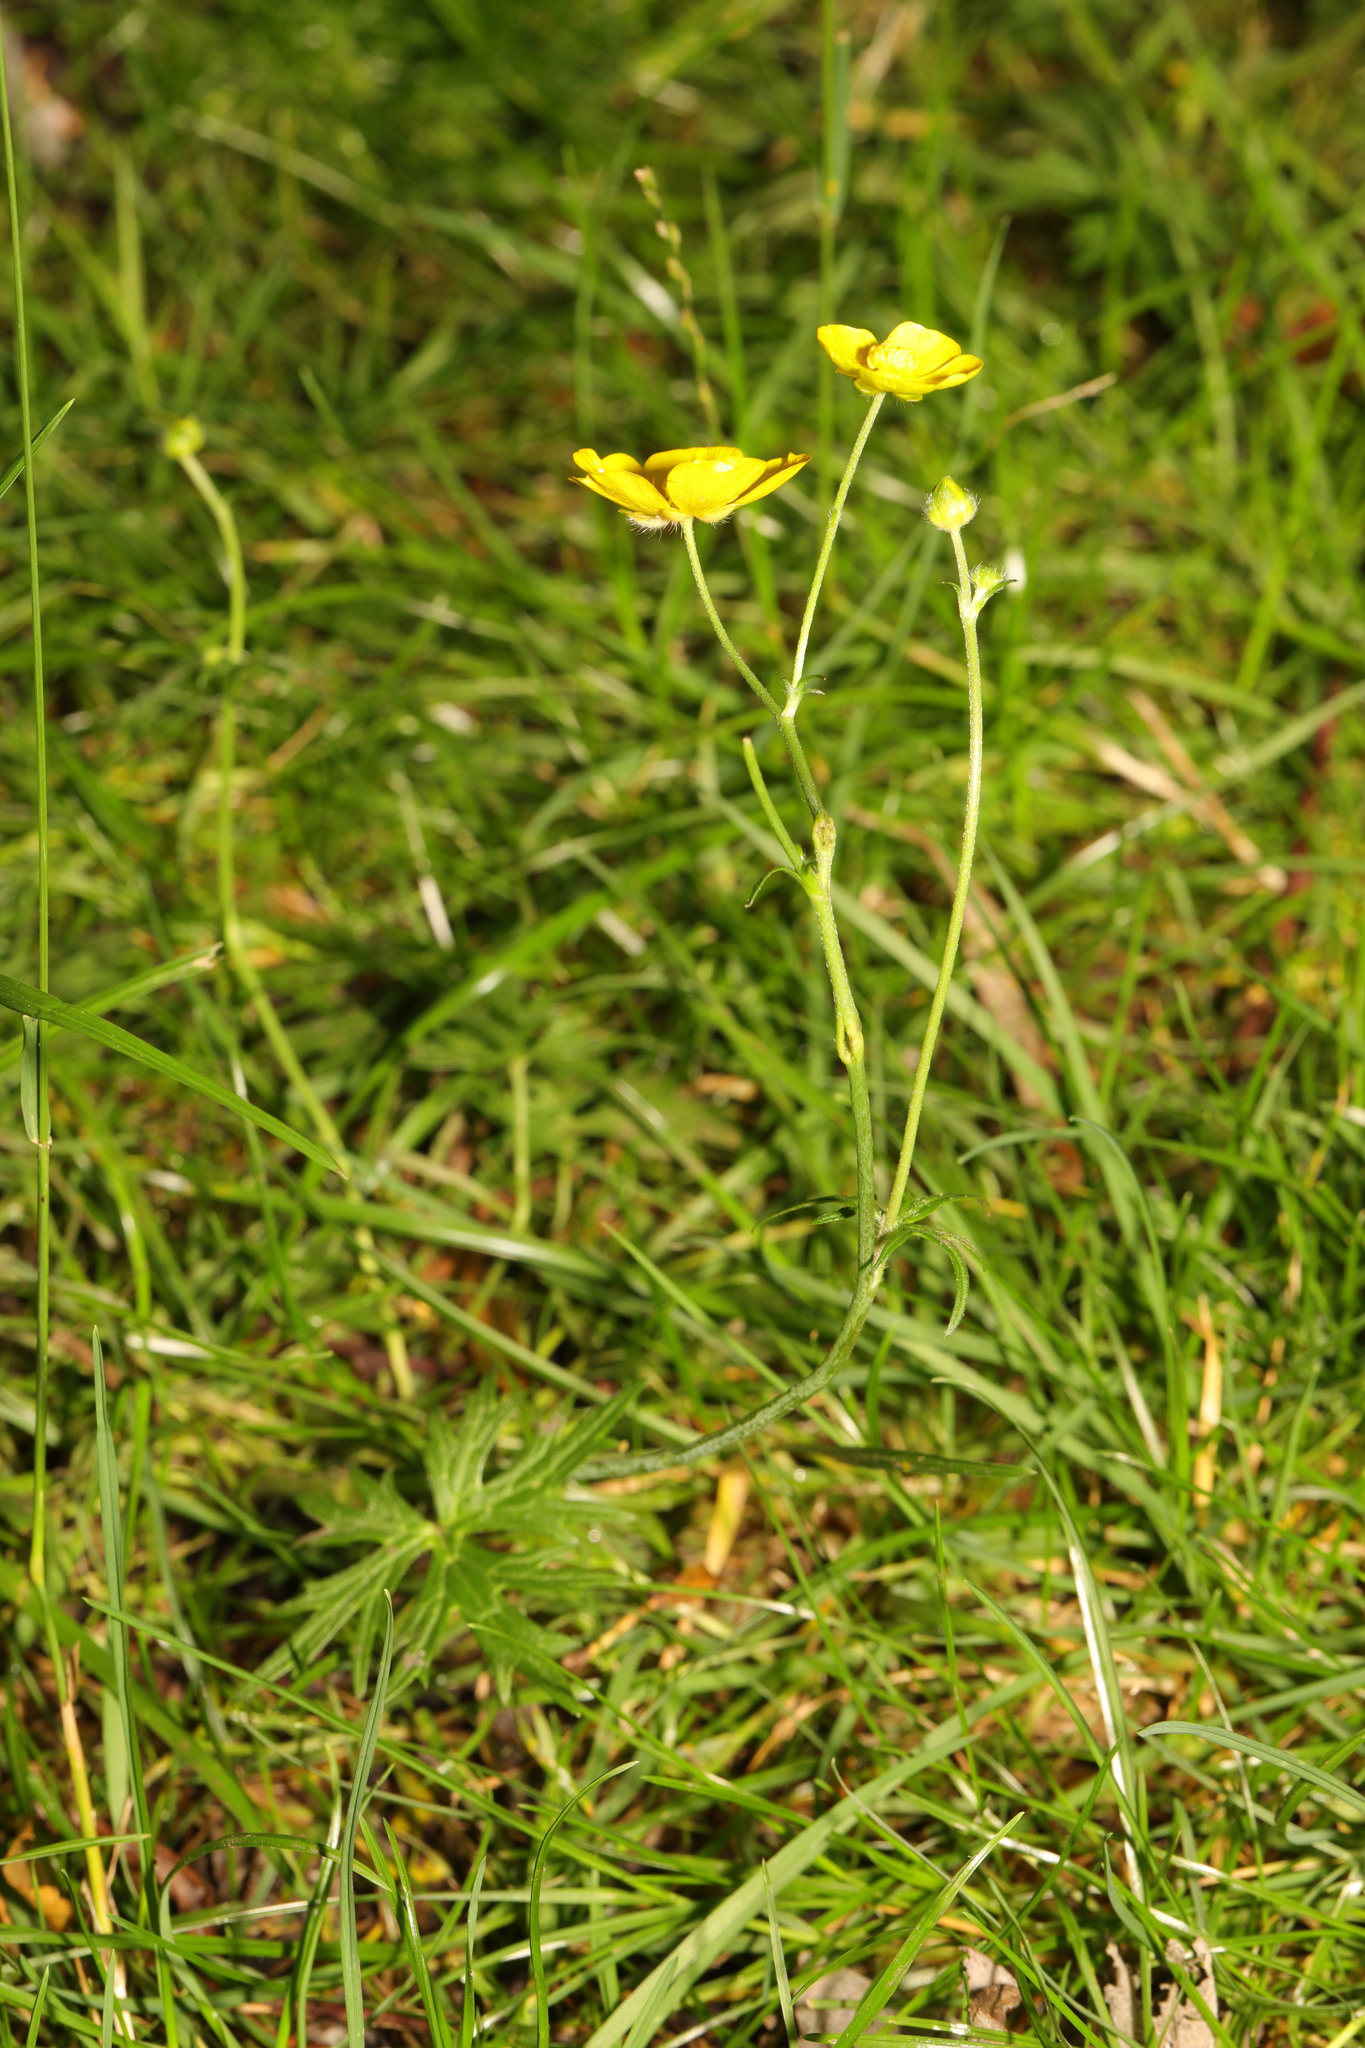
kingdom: Plantae
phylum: Tracheophyta
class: Magnoliopsida
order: Ranunculales
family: Ranunculaceae
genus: Ranunculus
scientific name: Ranunculus acris
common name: Meadow buttercup
